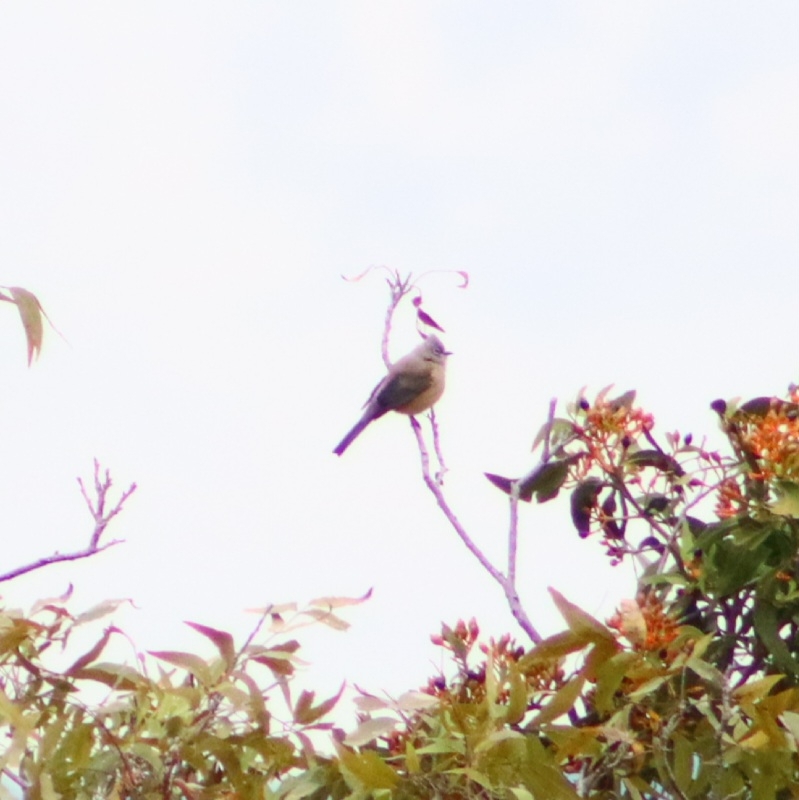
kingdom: Animalia
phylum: Chordata
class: Aves
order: Passeriformes
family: Ptilogonatidae
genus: Ptilogonys
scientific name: Ptilogonys cinereus
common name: Gray silky-flycatcher
